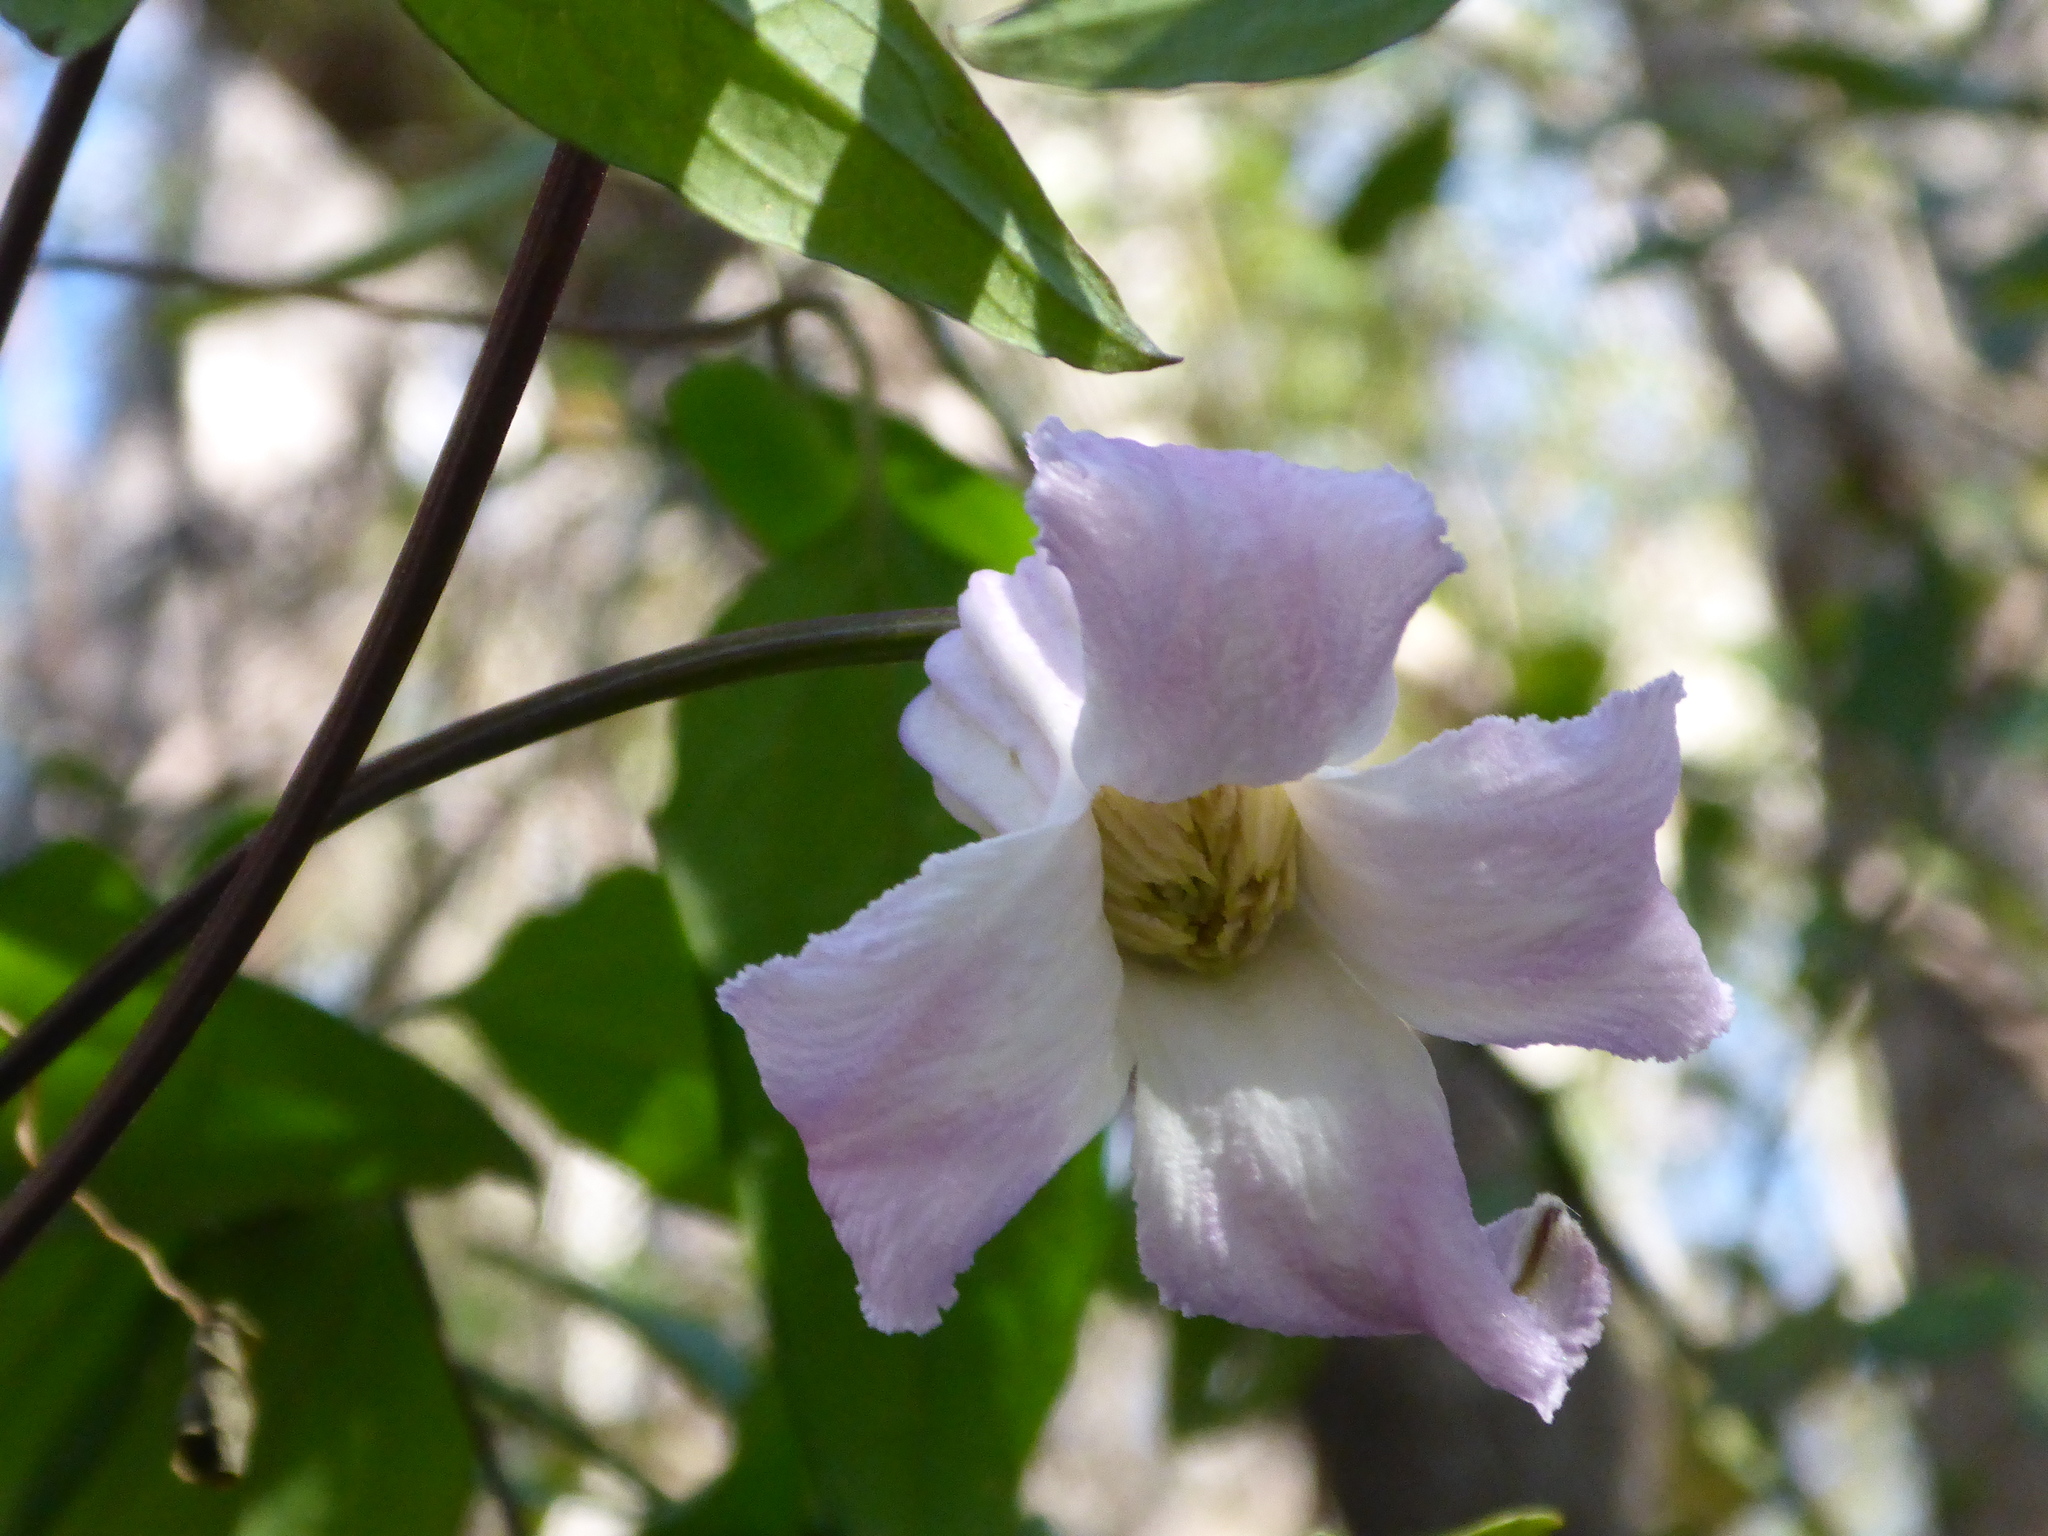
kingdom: Plantae
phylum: Tracheophyta
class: Magnoliopsida
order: Ranunculales
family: Ranunculaceae
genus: Clematis
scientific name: Clematis crispa
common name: Curly clematis
